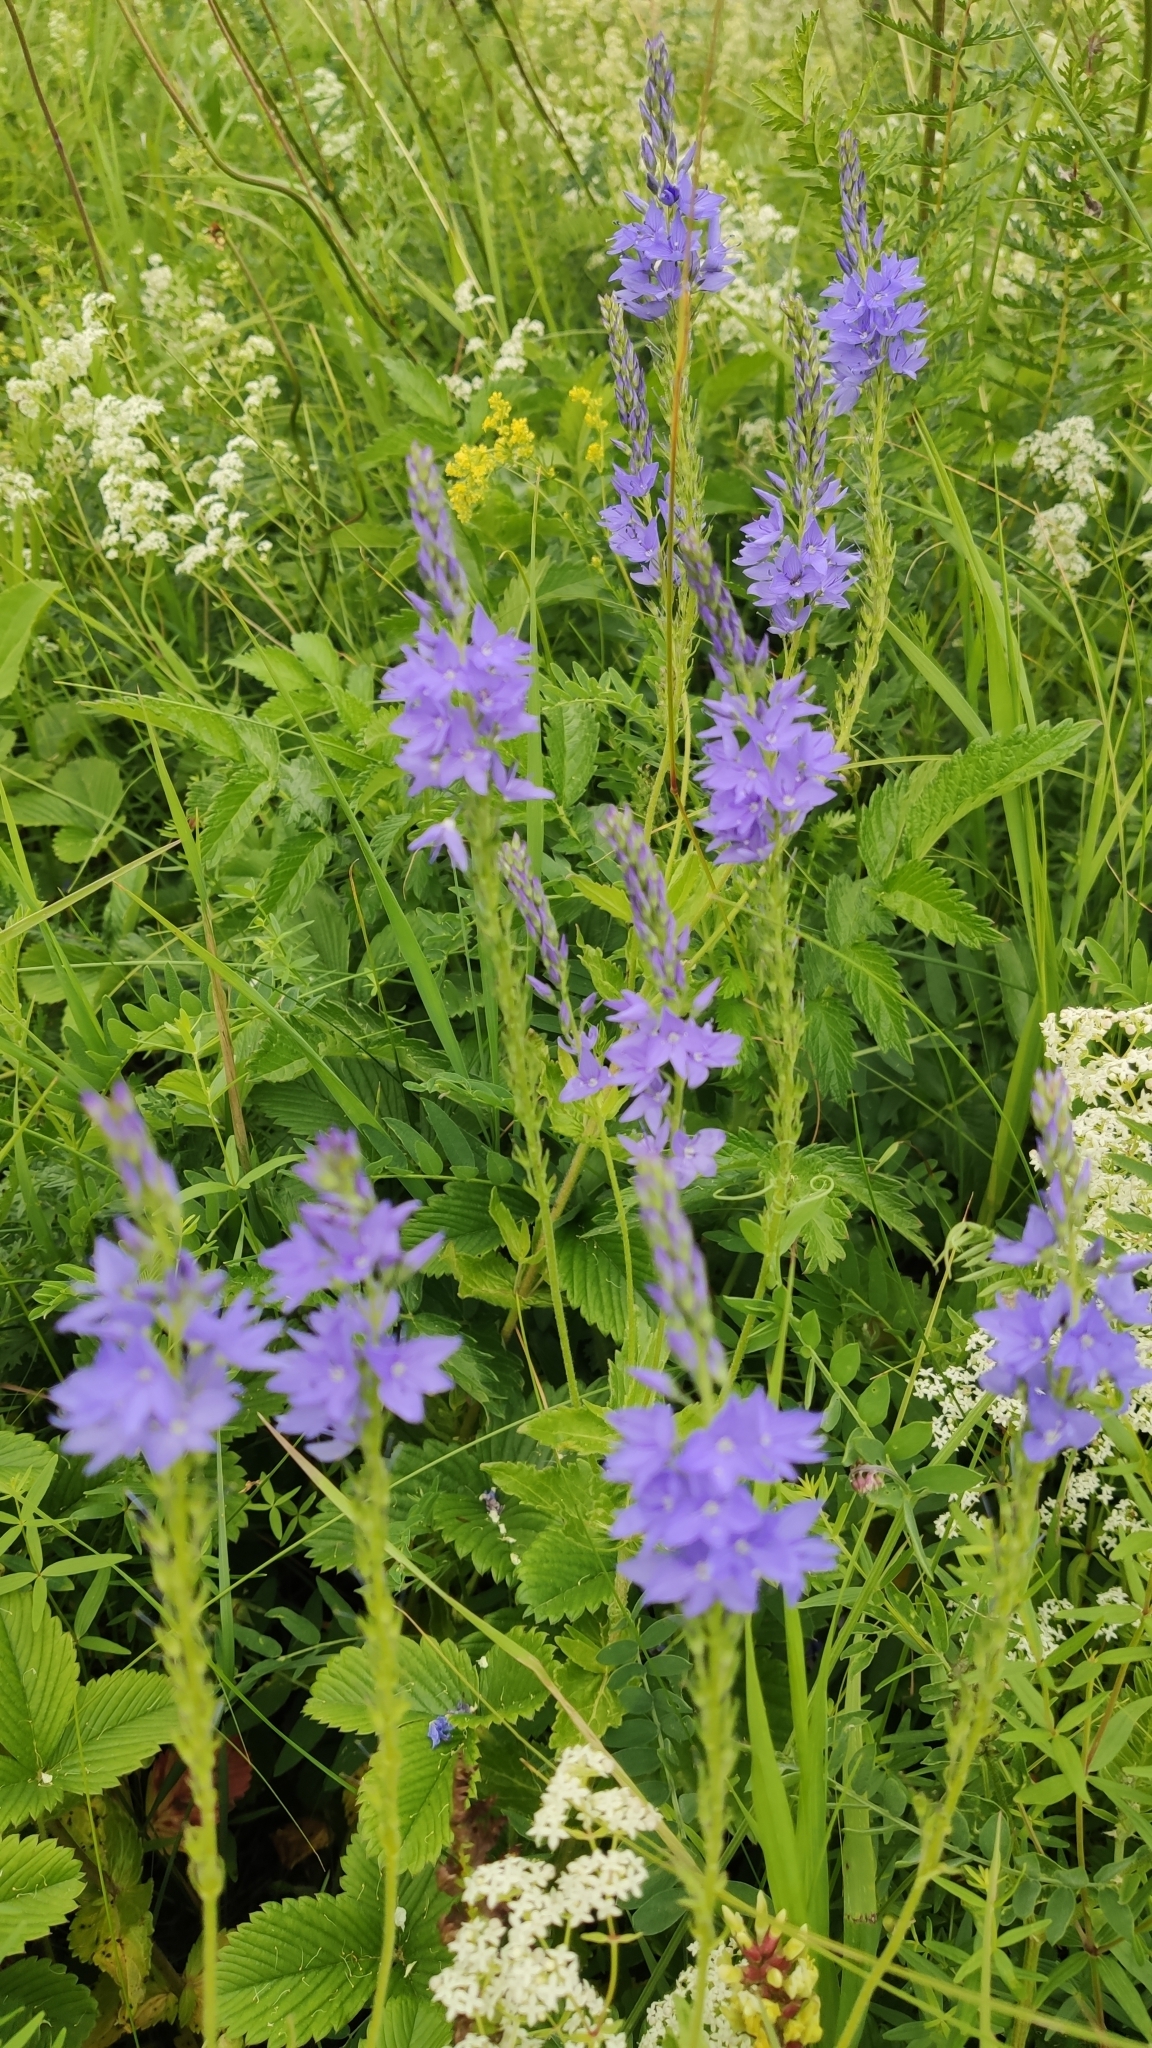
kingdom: Plantae
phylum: Tracheophyta
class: Magnoliopsida
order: Lamiales
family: Plantaginaceae
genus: Veronica
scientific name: Veronica teucrium
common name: Large speedwell
